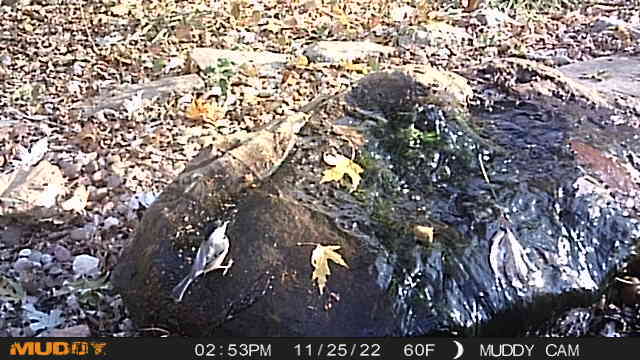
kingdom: Animalia
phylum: Chordata
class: Aves
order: Passeriformes
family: Paridae
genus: Poecile
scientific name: Poecile carolinensis
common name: Carolina chickadee
